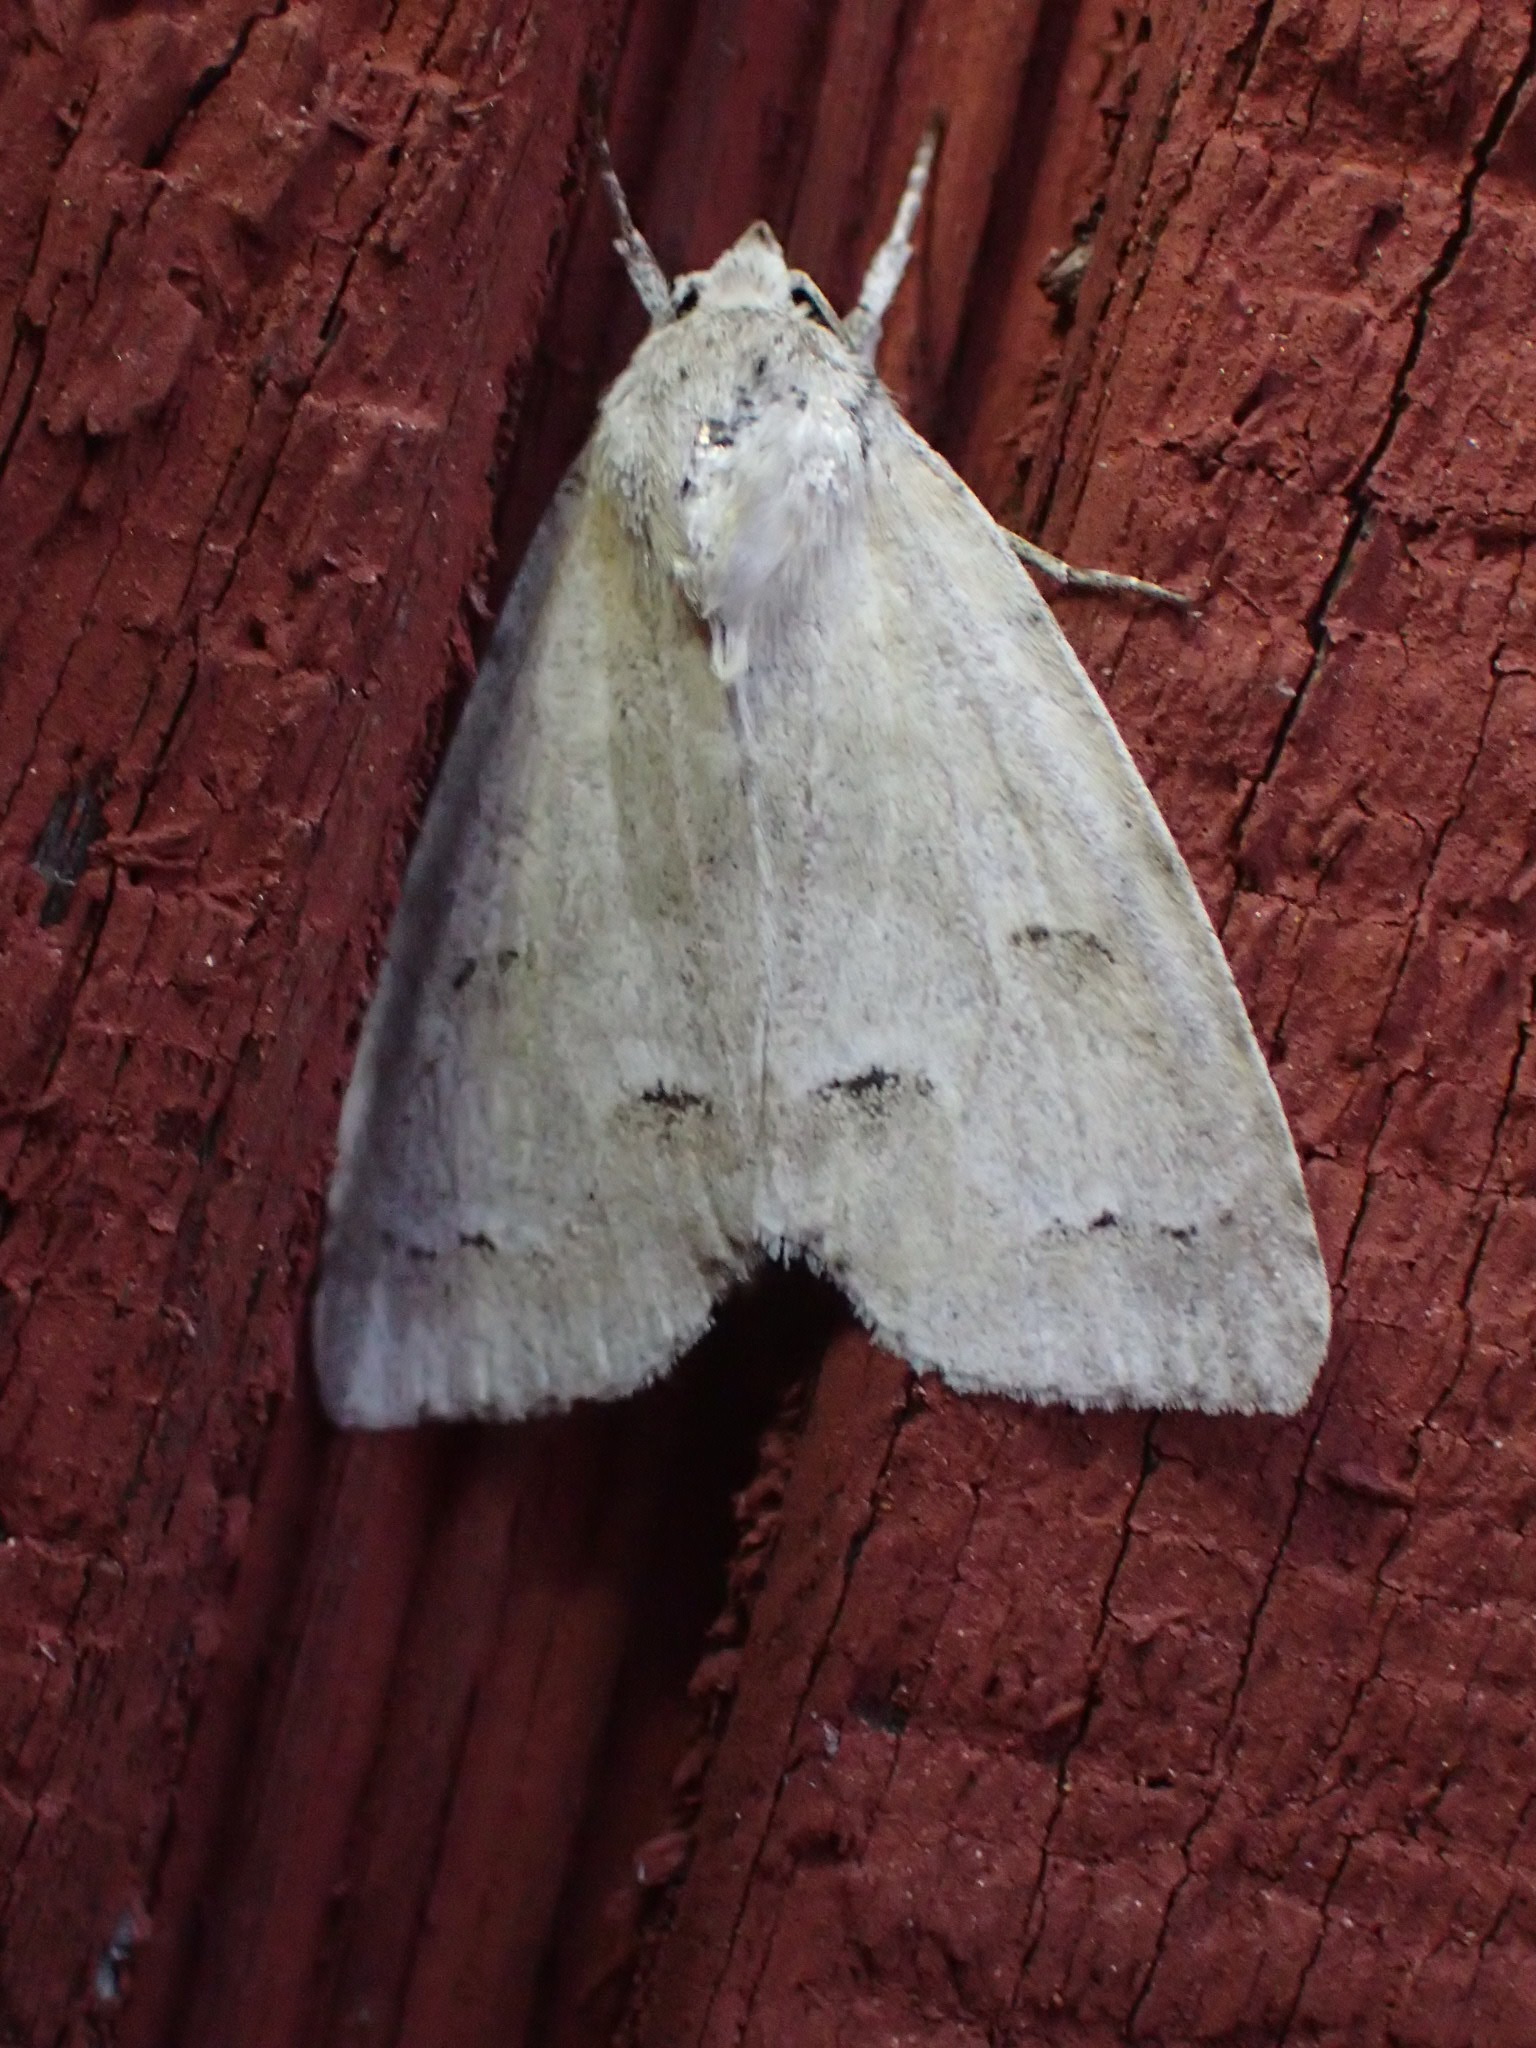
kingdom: Animalia
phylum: Arthropoda
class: Insecta
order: Lepidoptera
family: Noctuidae
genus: Acronicta
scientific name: Acronicta innotata
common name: Unmarked dagger
